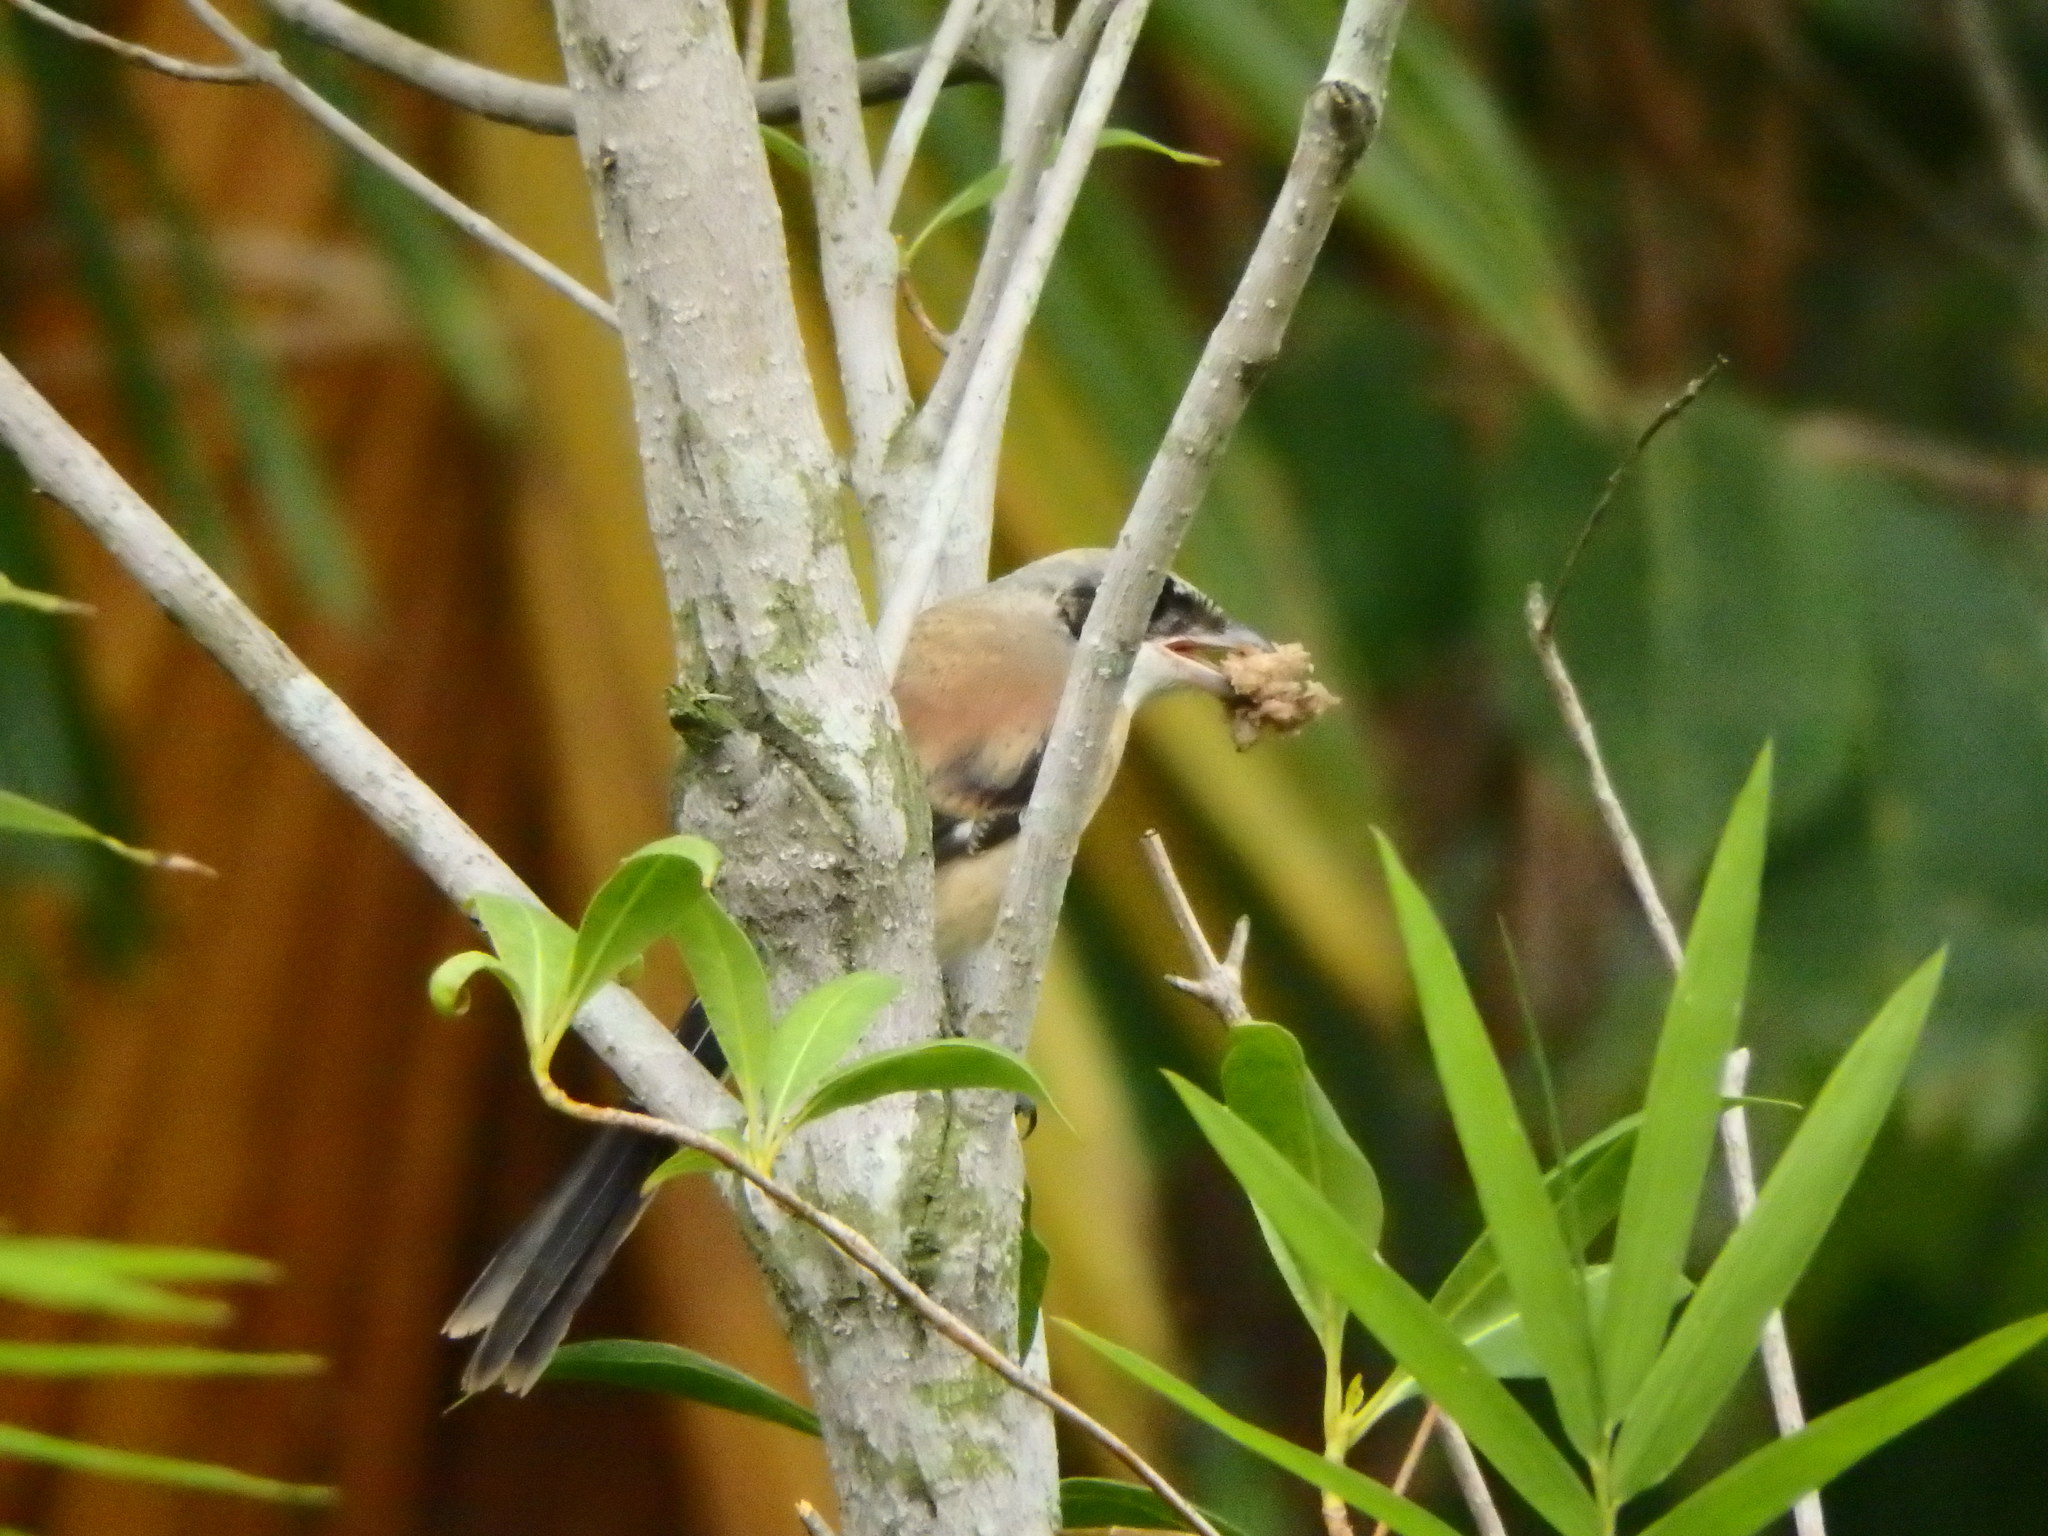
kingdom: Animalia
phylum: Chordata
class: Aves
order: Passeriformes
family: Laniidae
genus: Lanius
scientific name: Lanius schach
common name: Long-tailed shrike
